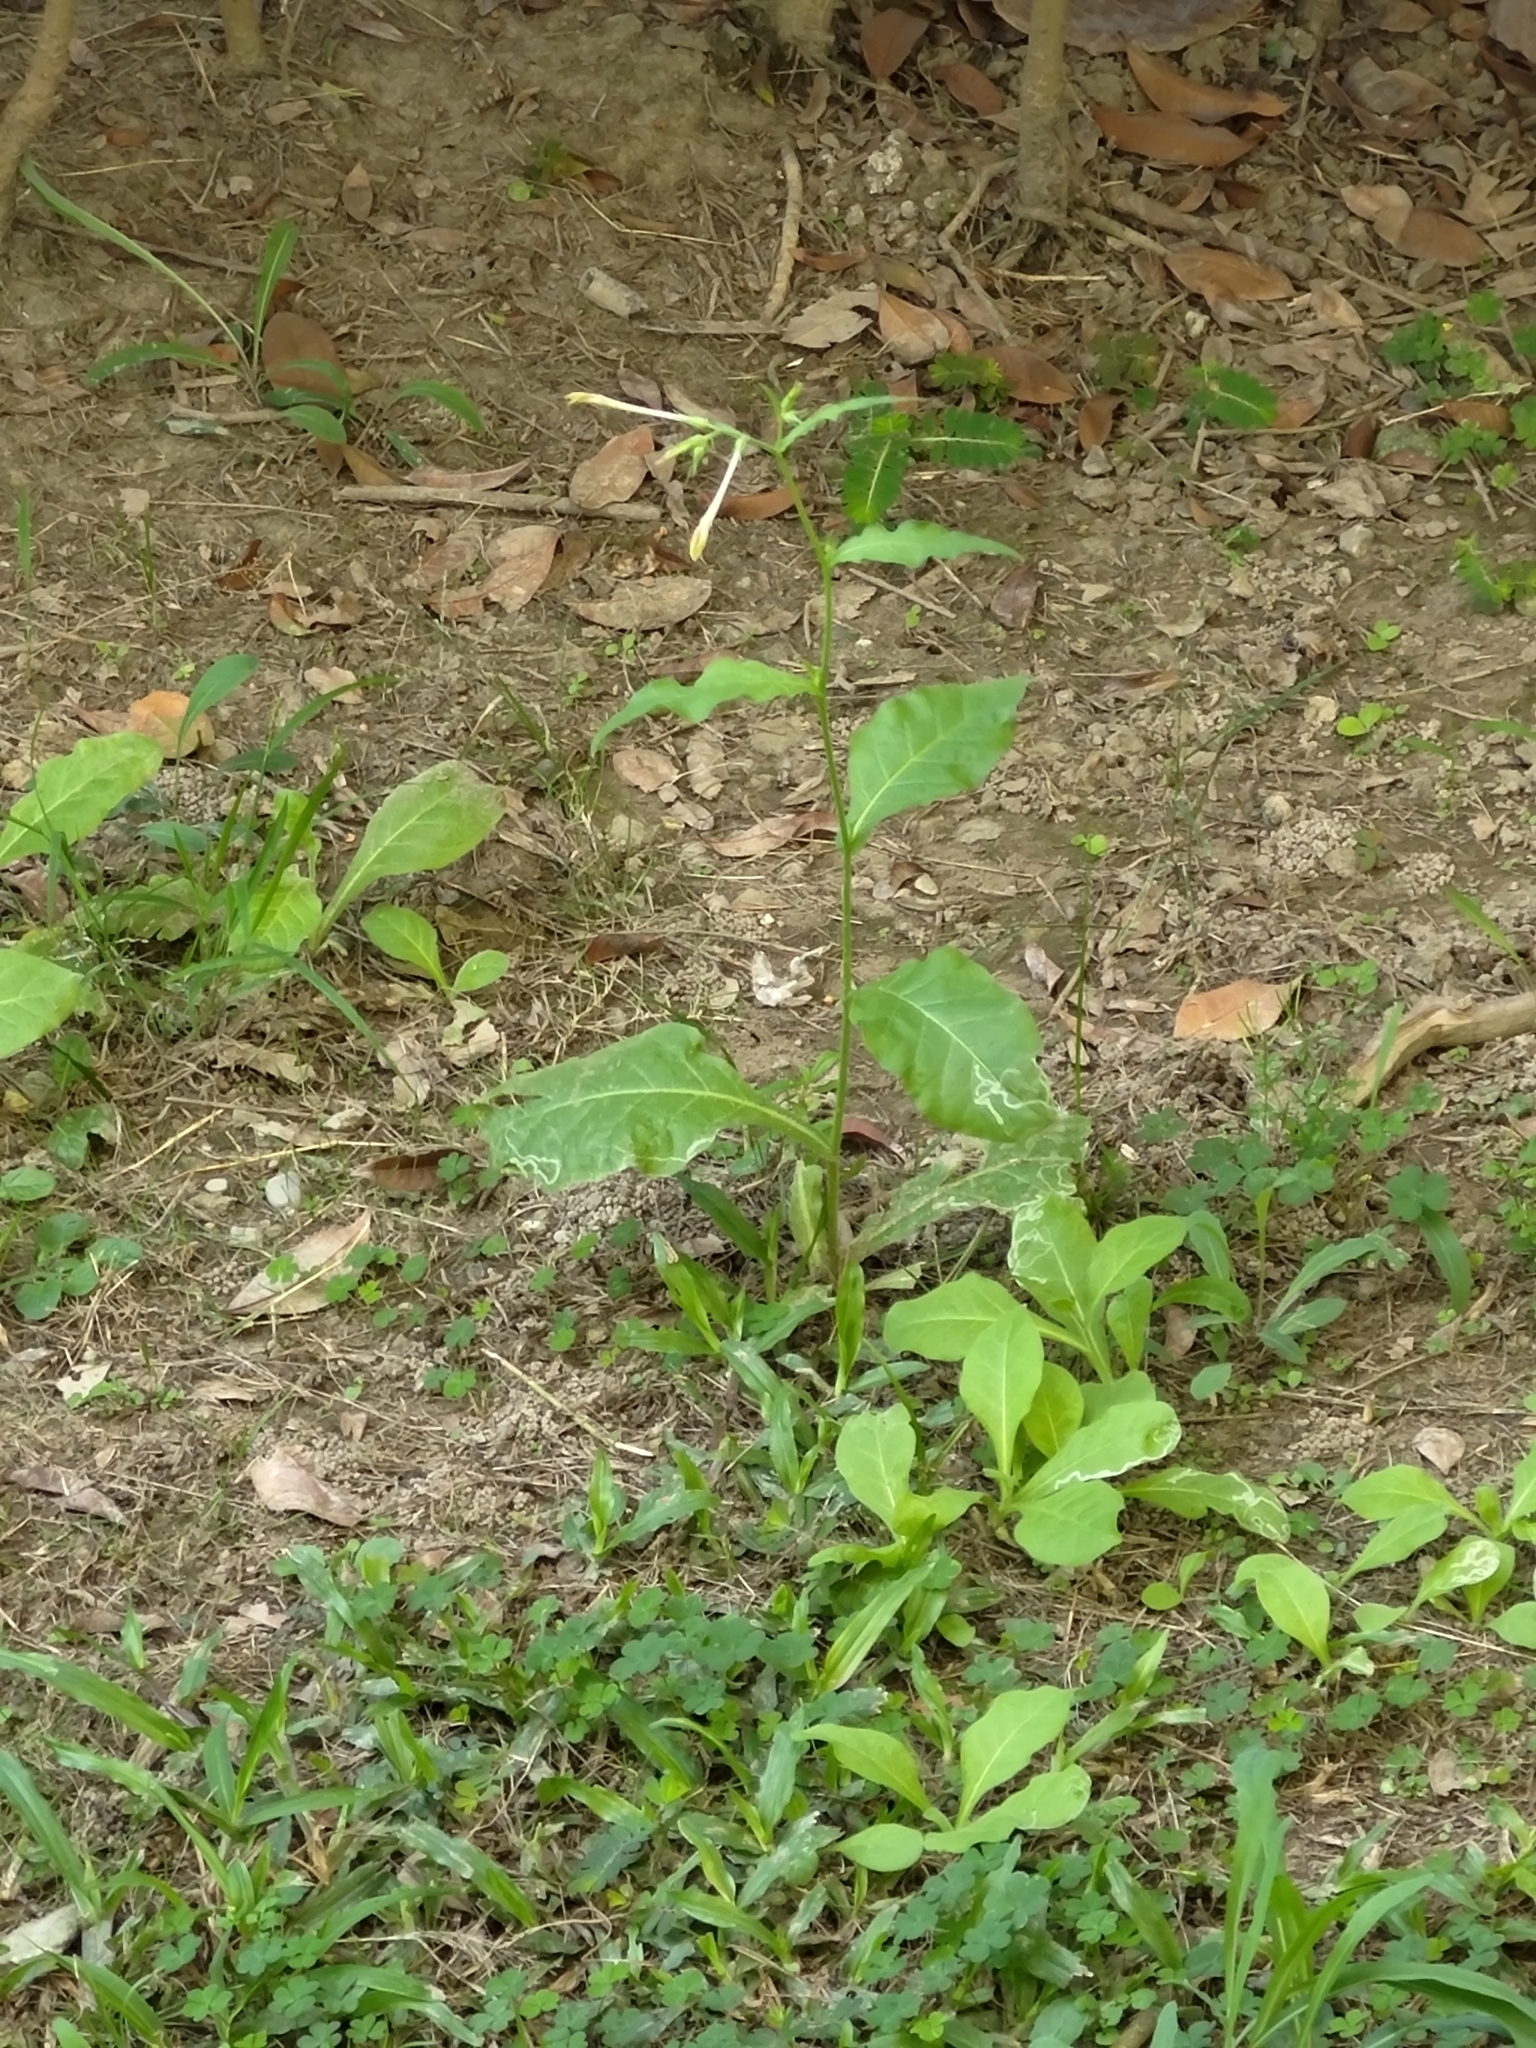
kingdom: Plantae
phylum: Tracheophyta
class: Magnoliopsida
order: Solanales
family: Solanaceae
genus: Nicotiana
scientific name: Nicotiana plumbaginifolia
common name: Tex-mex tobacco
